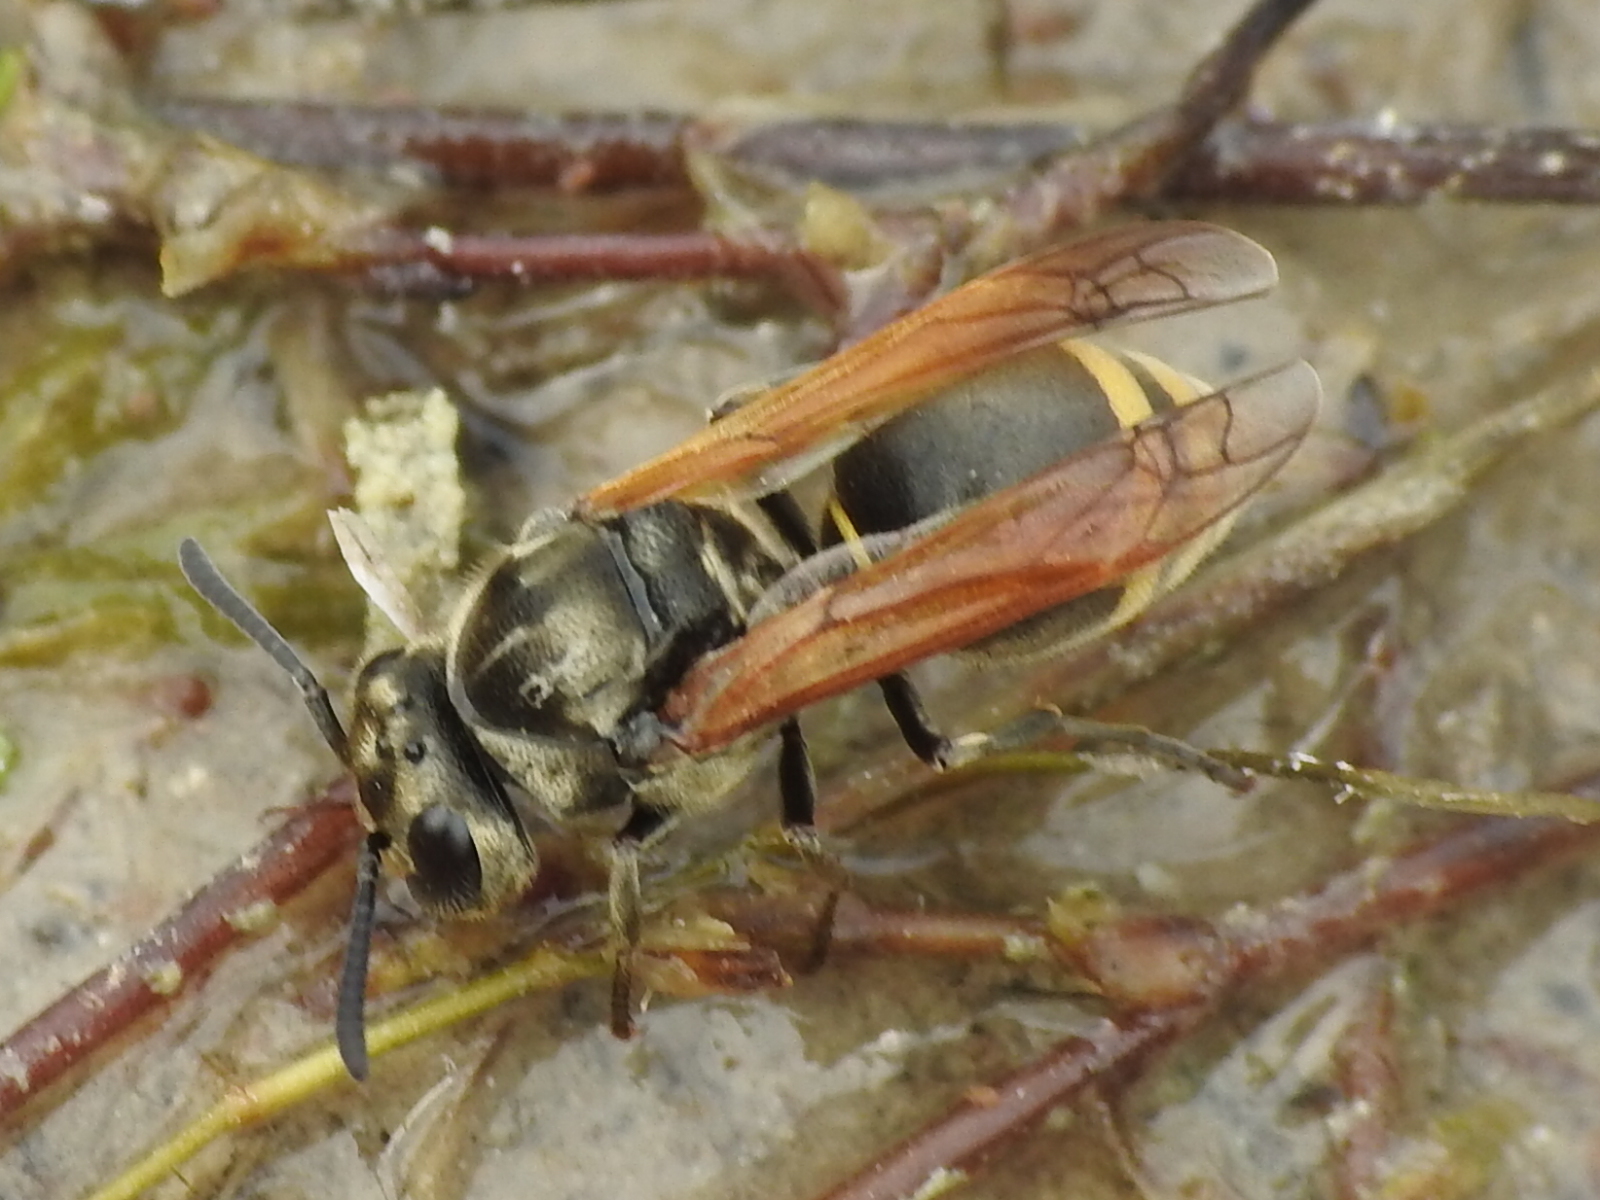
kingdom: Animalia
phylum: Arthropoda
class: Insecta
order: Hymenoptera
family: Vespidae
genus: Brachygastra
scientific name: Brachygastra mellifica
